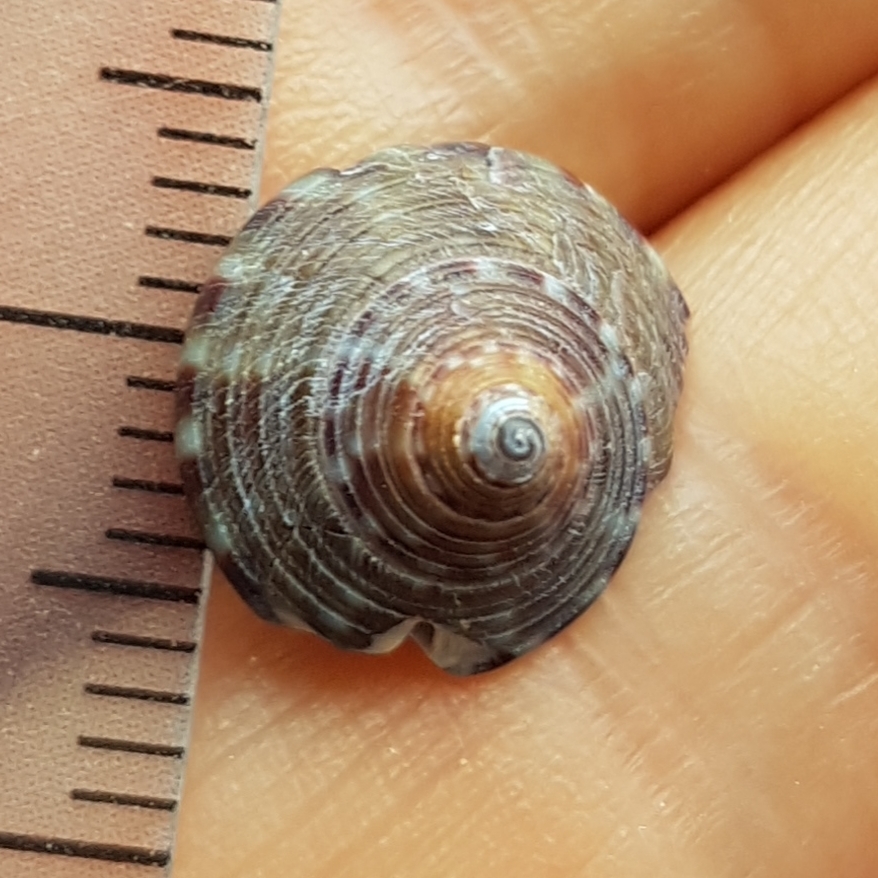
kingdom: Animalia
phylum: Mollusca
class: Gastropoda
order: Trochida
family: Calliostomatidae
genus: Calliostoma
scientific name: Calliostoma zizyphinum
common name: Painted top shell
